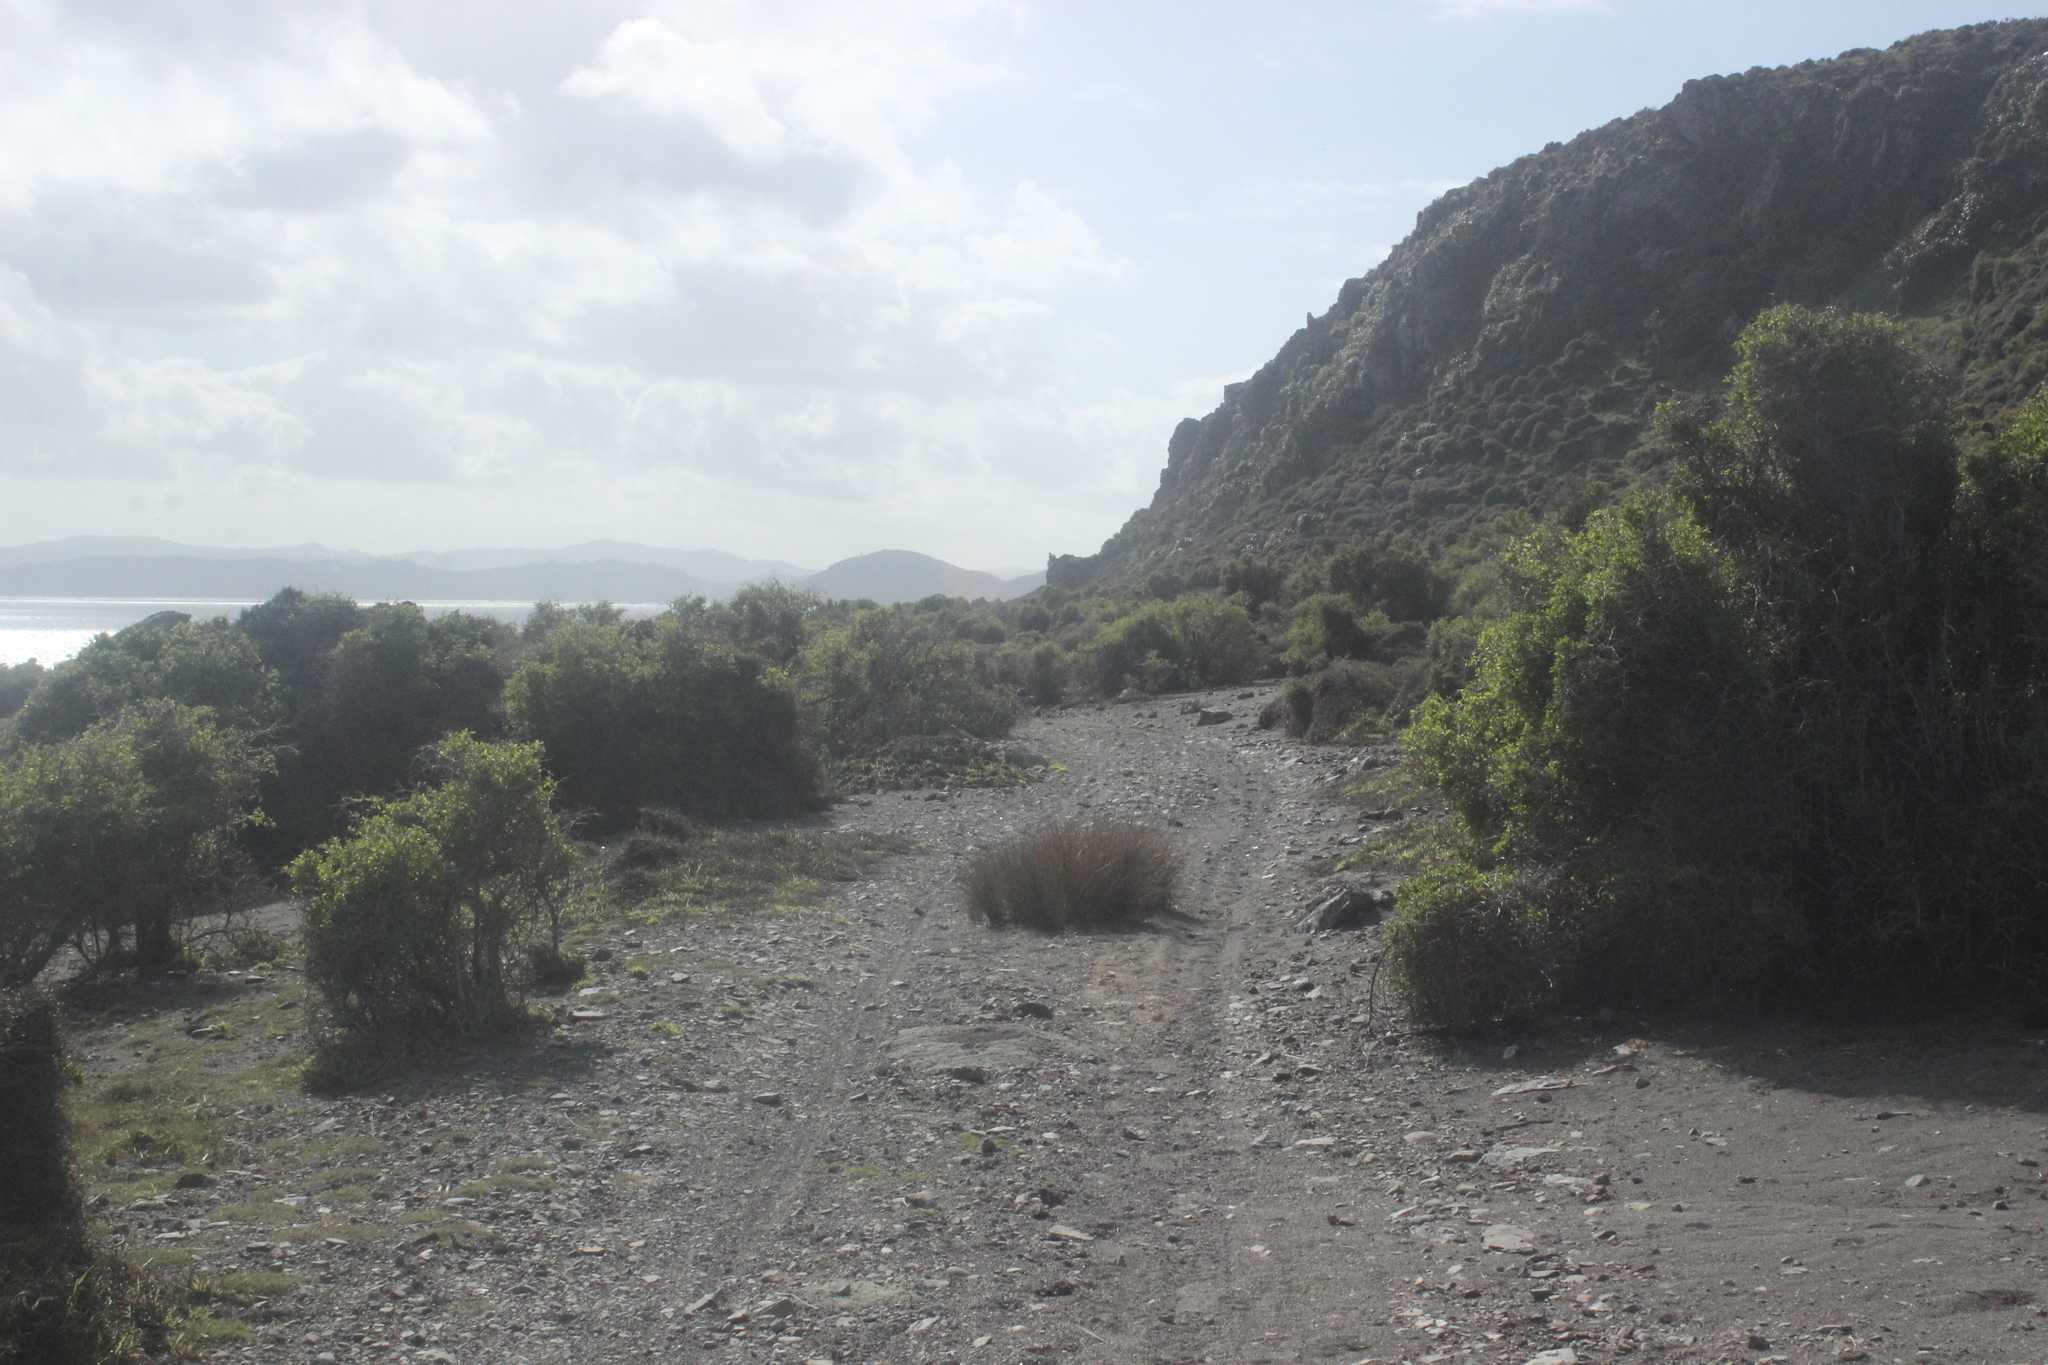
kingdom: Plantae
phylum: Tracheophyta
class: Magnoliopsida
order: Solanales
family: Solanaceae
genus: Lycium
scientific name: Lycium ferocissimum
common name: African boxthorn
